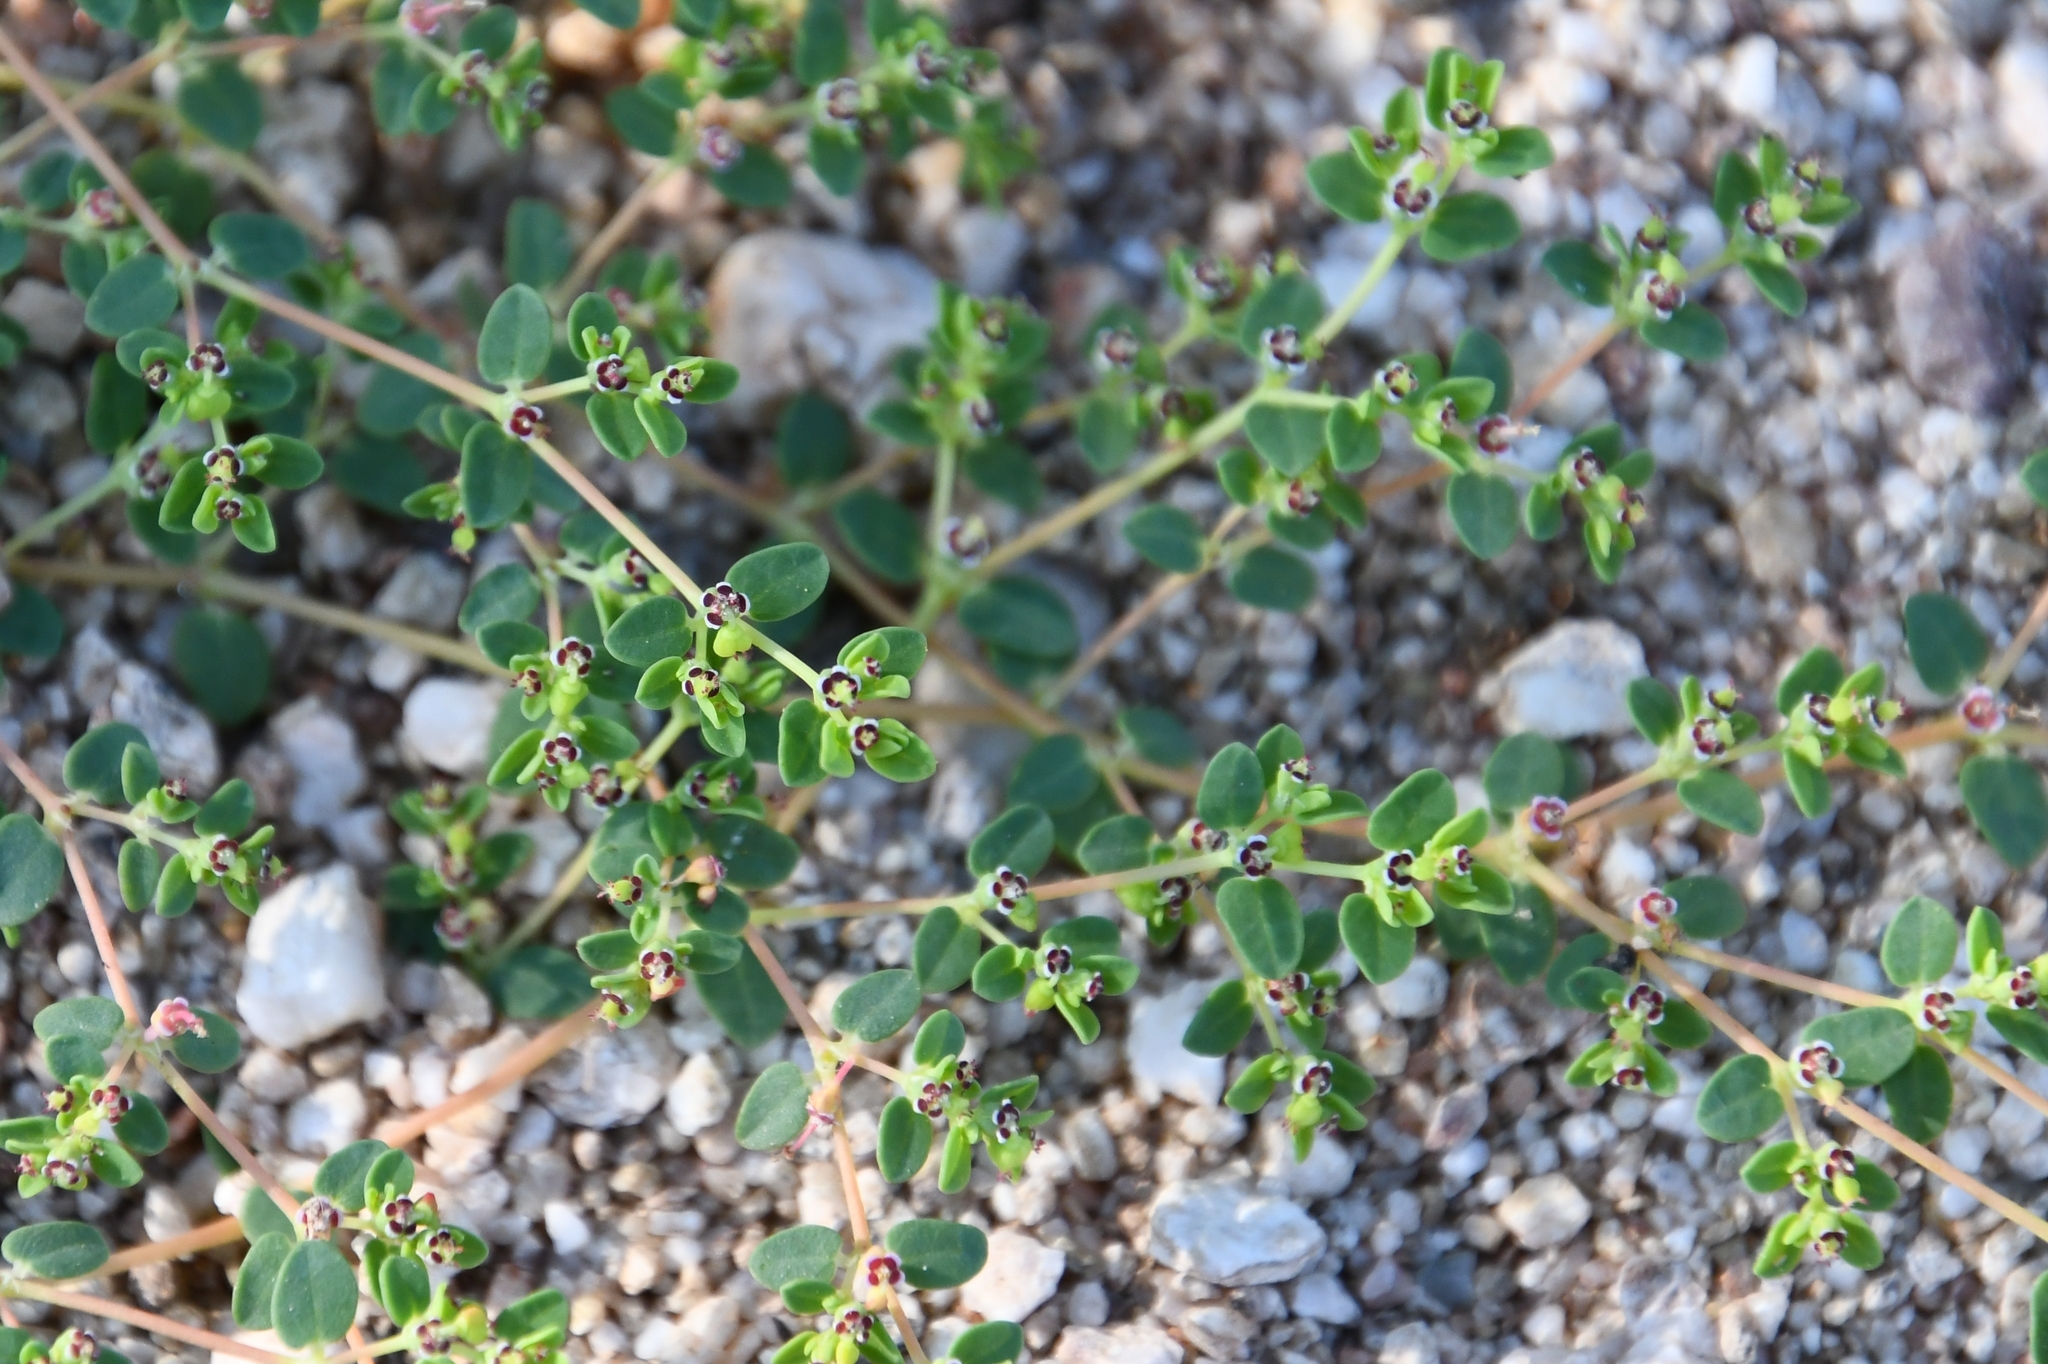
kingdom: Plantae
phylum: Tracheophyta
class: Magnoliopsida
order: Malpighiales
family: Euphorbiaceae
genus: Euphorbia
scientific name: Euphorbia polycarpa
